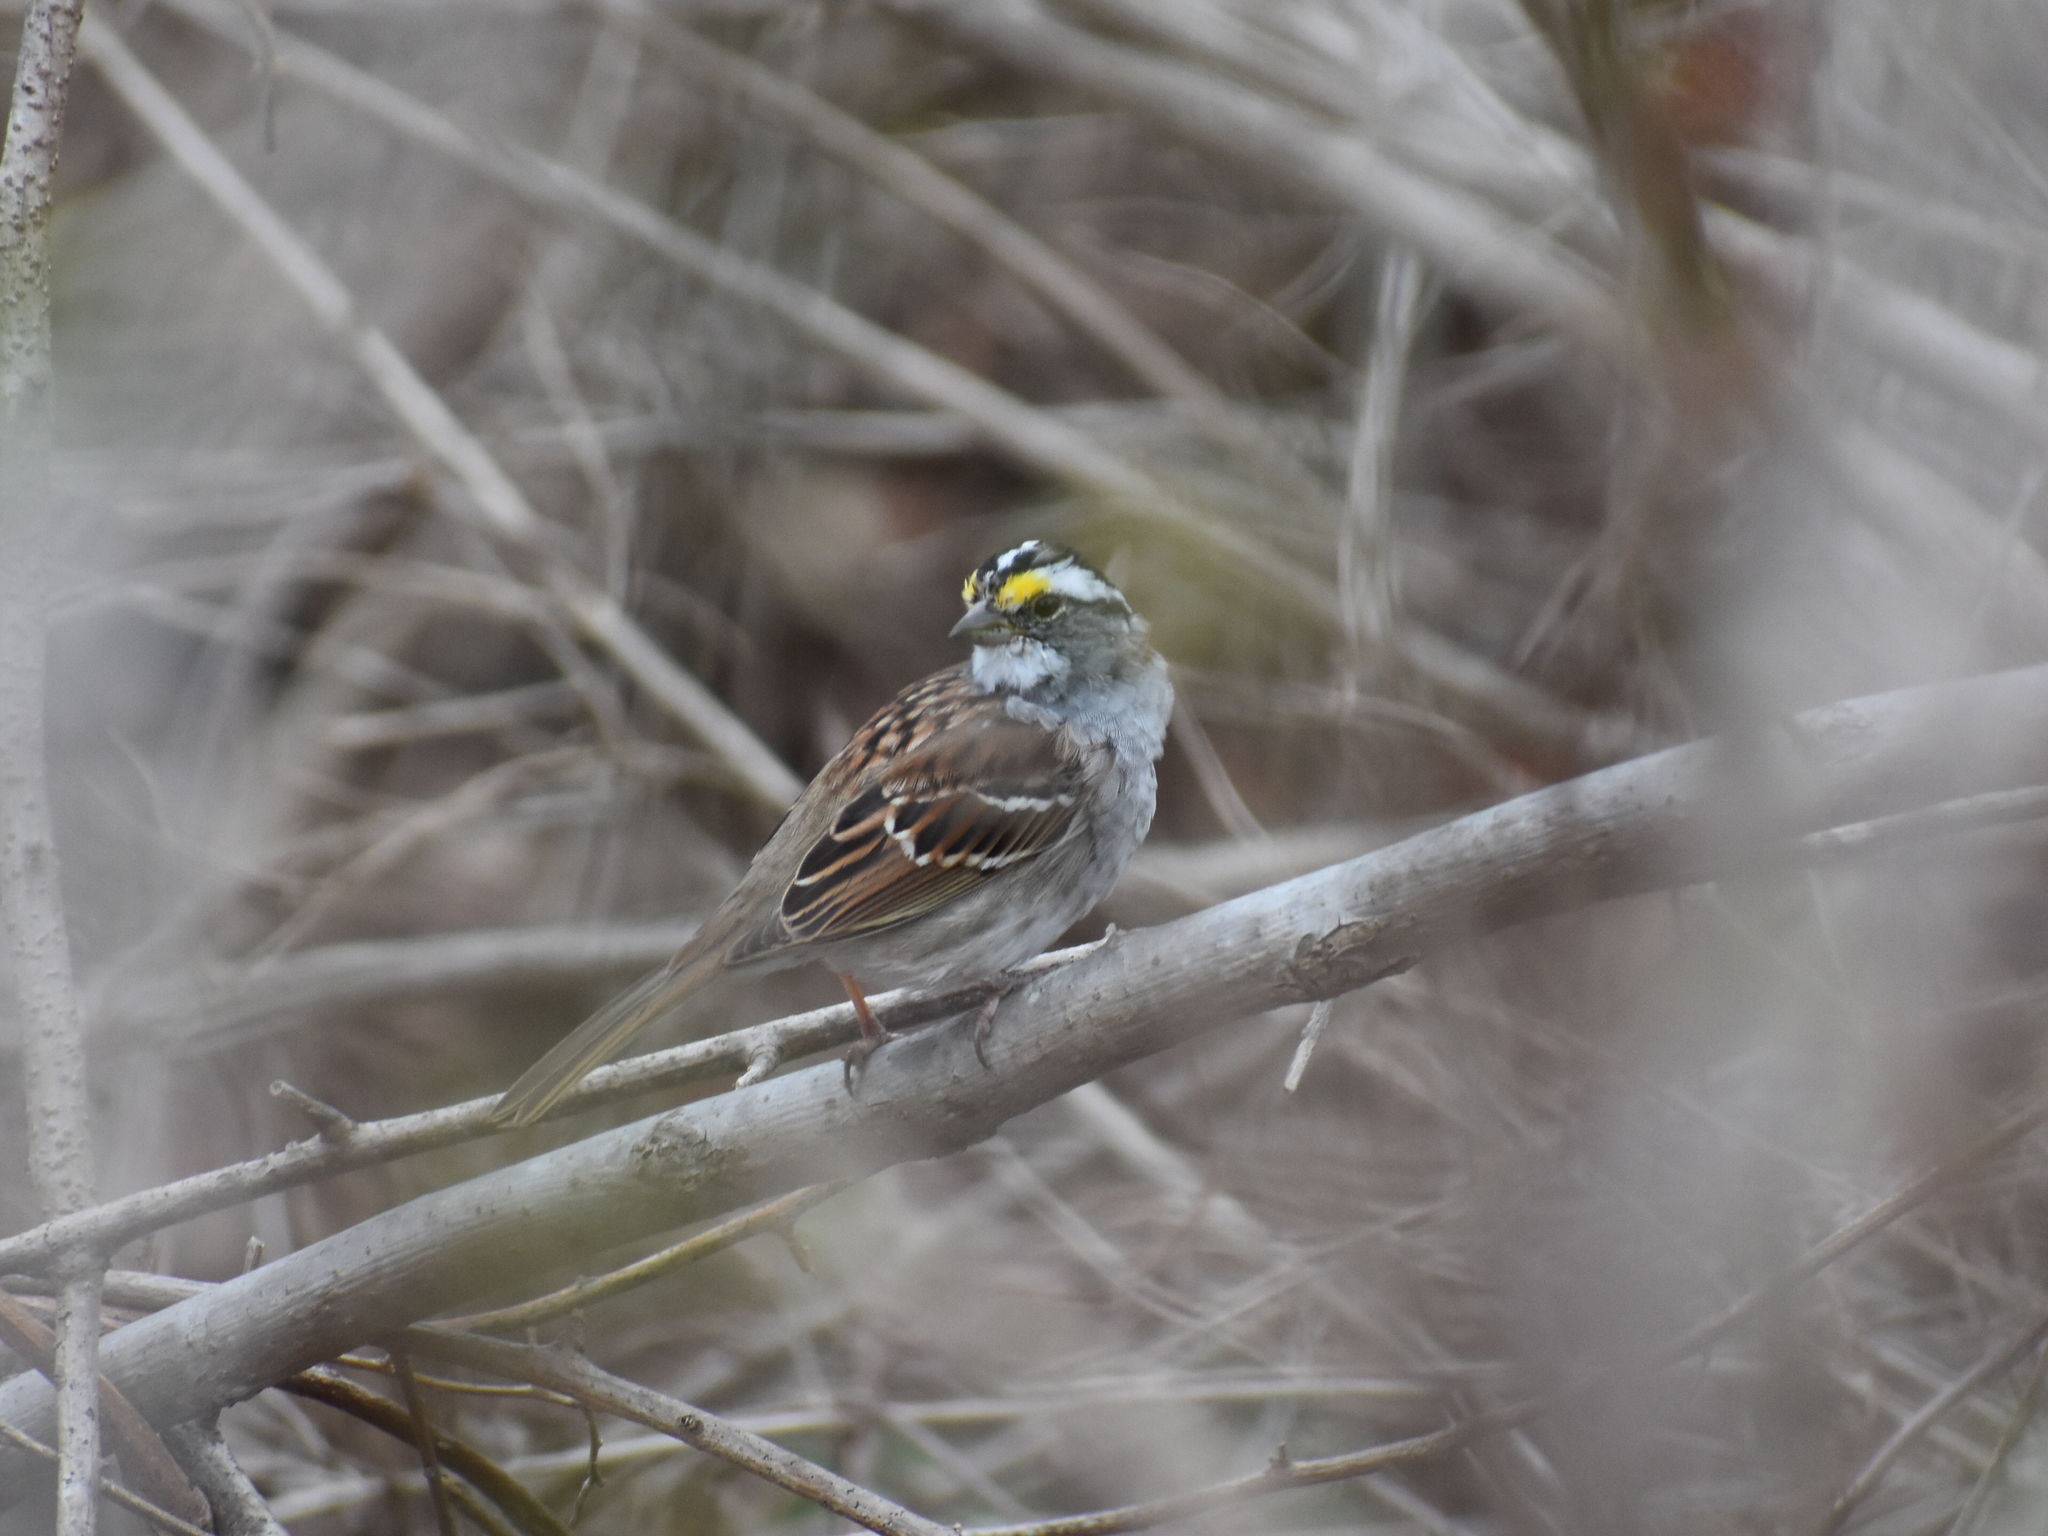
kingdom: Animalia
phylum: Chordata
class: Aves
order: Passeriformes
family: Passerellidae
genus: Zonotrichia
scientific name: Zonotrichia albicollis
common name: White-throated sparrow
